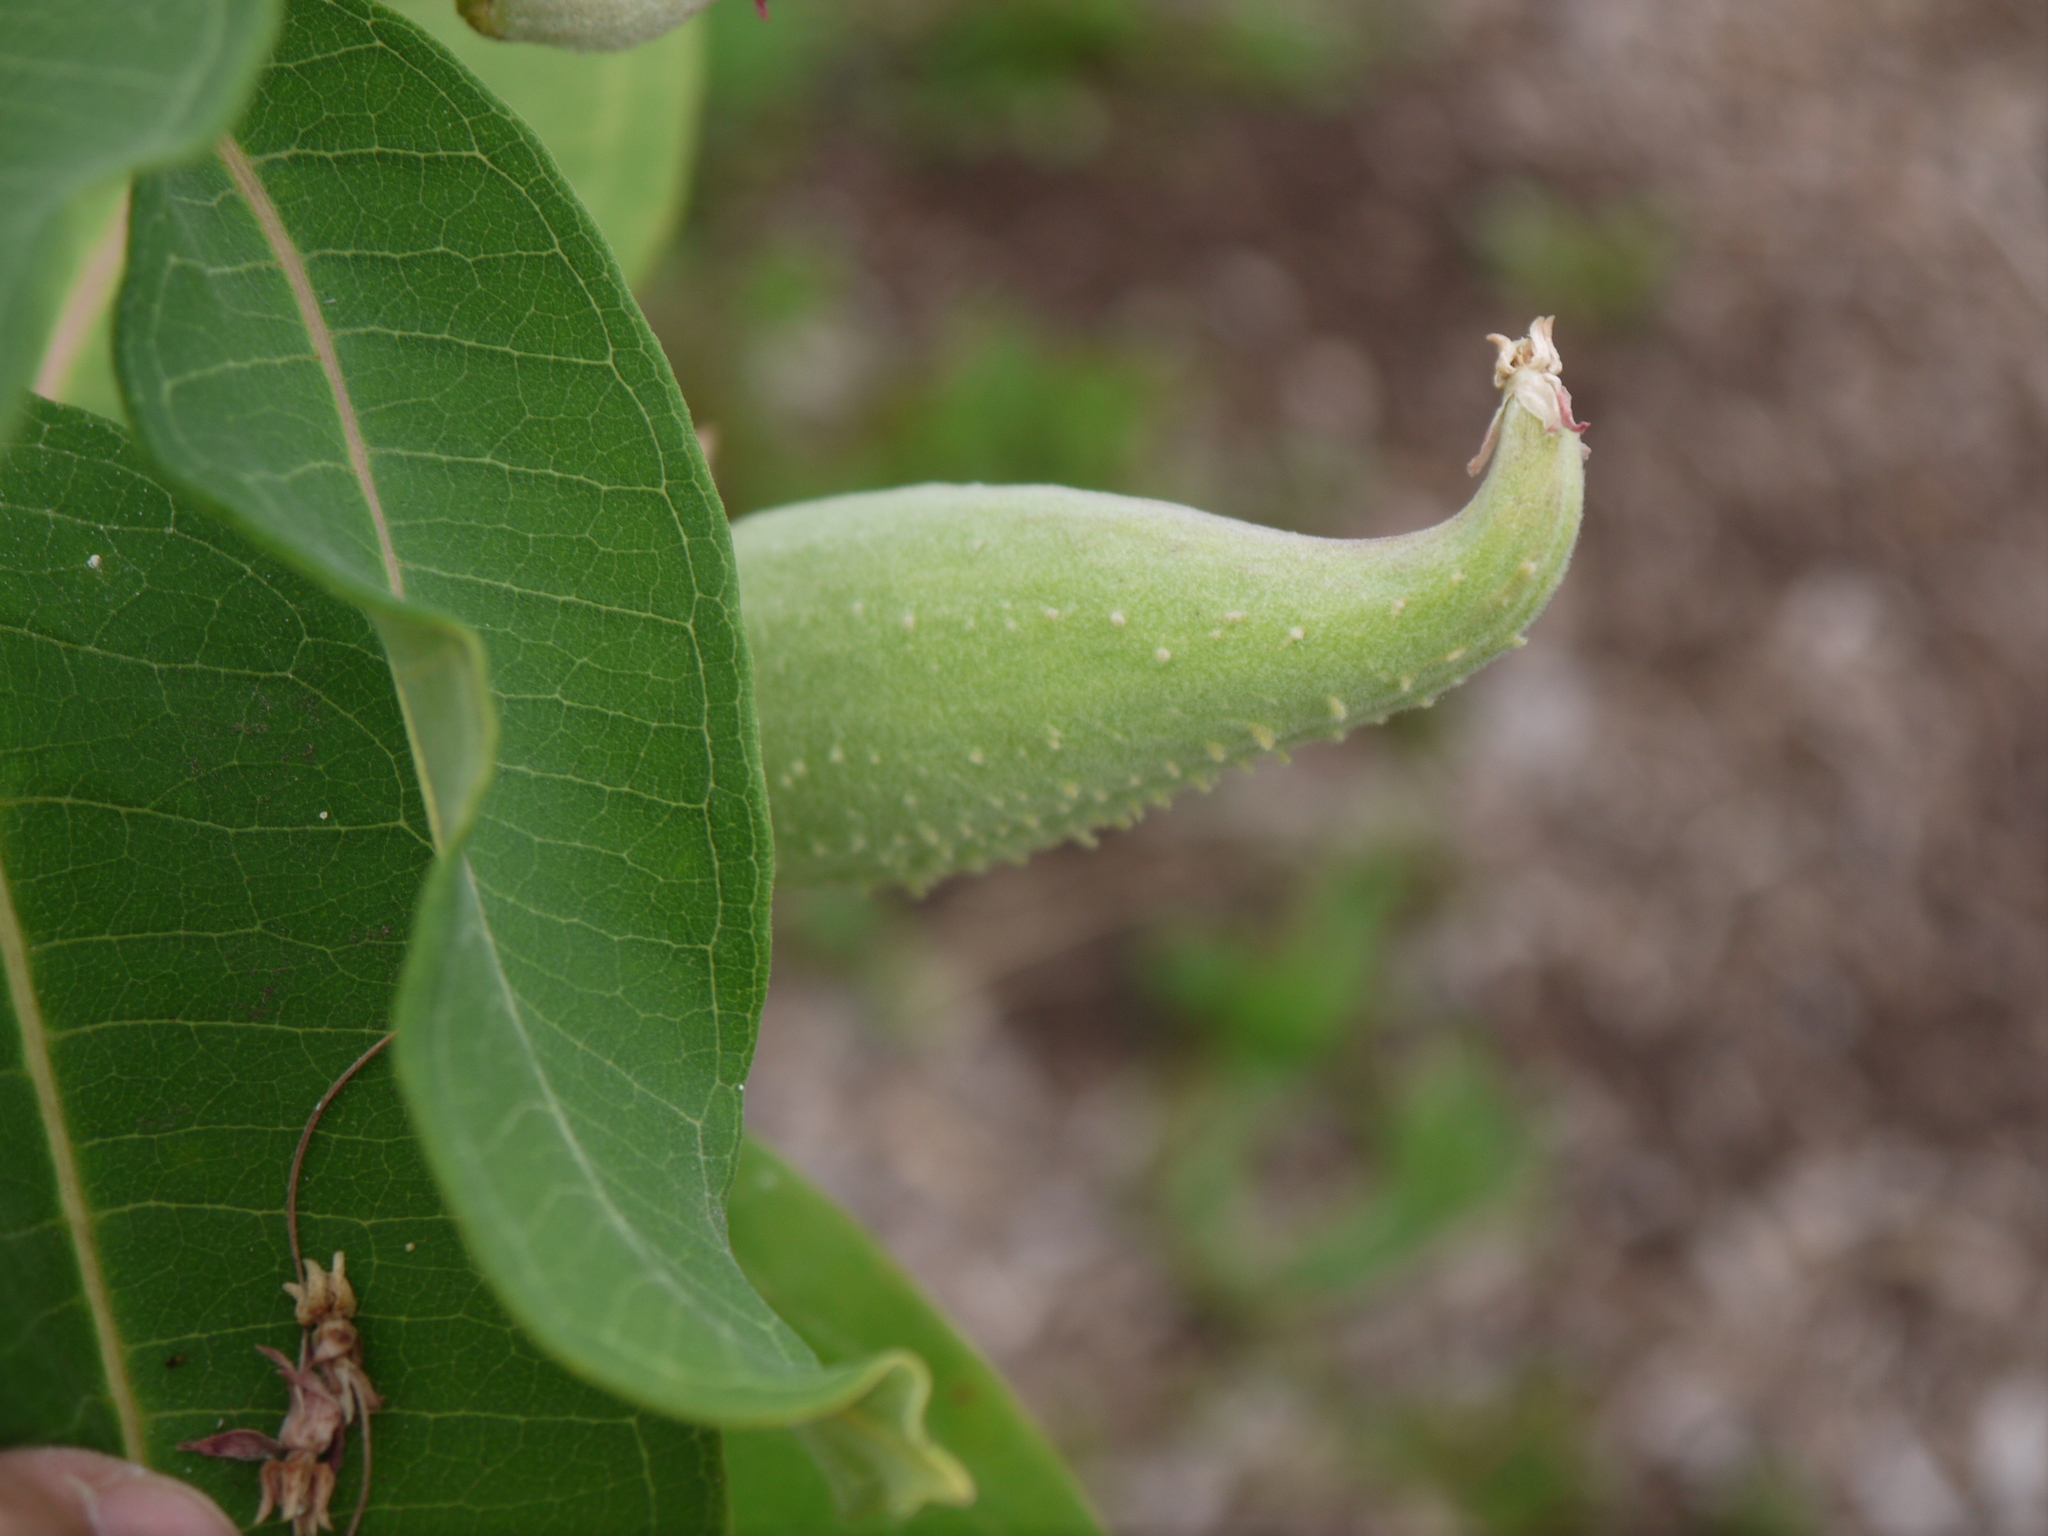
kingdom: Plantae
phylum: Tracheophyta
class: Magnoliopsida
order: Gentianales
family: Apocynaceae
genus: Asclepias
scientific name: Asclepias syriaca
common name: Common milkweed
